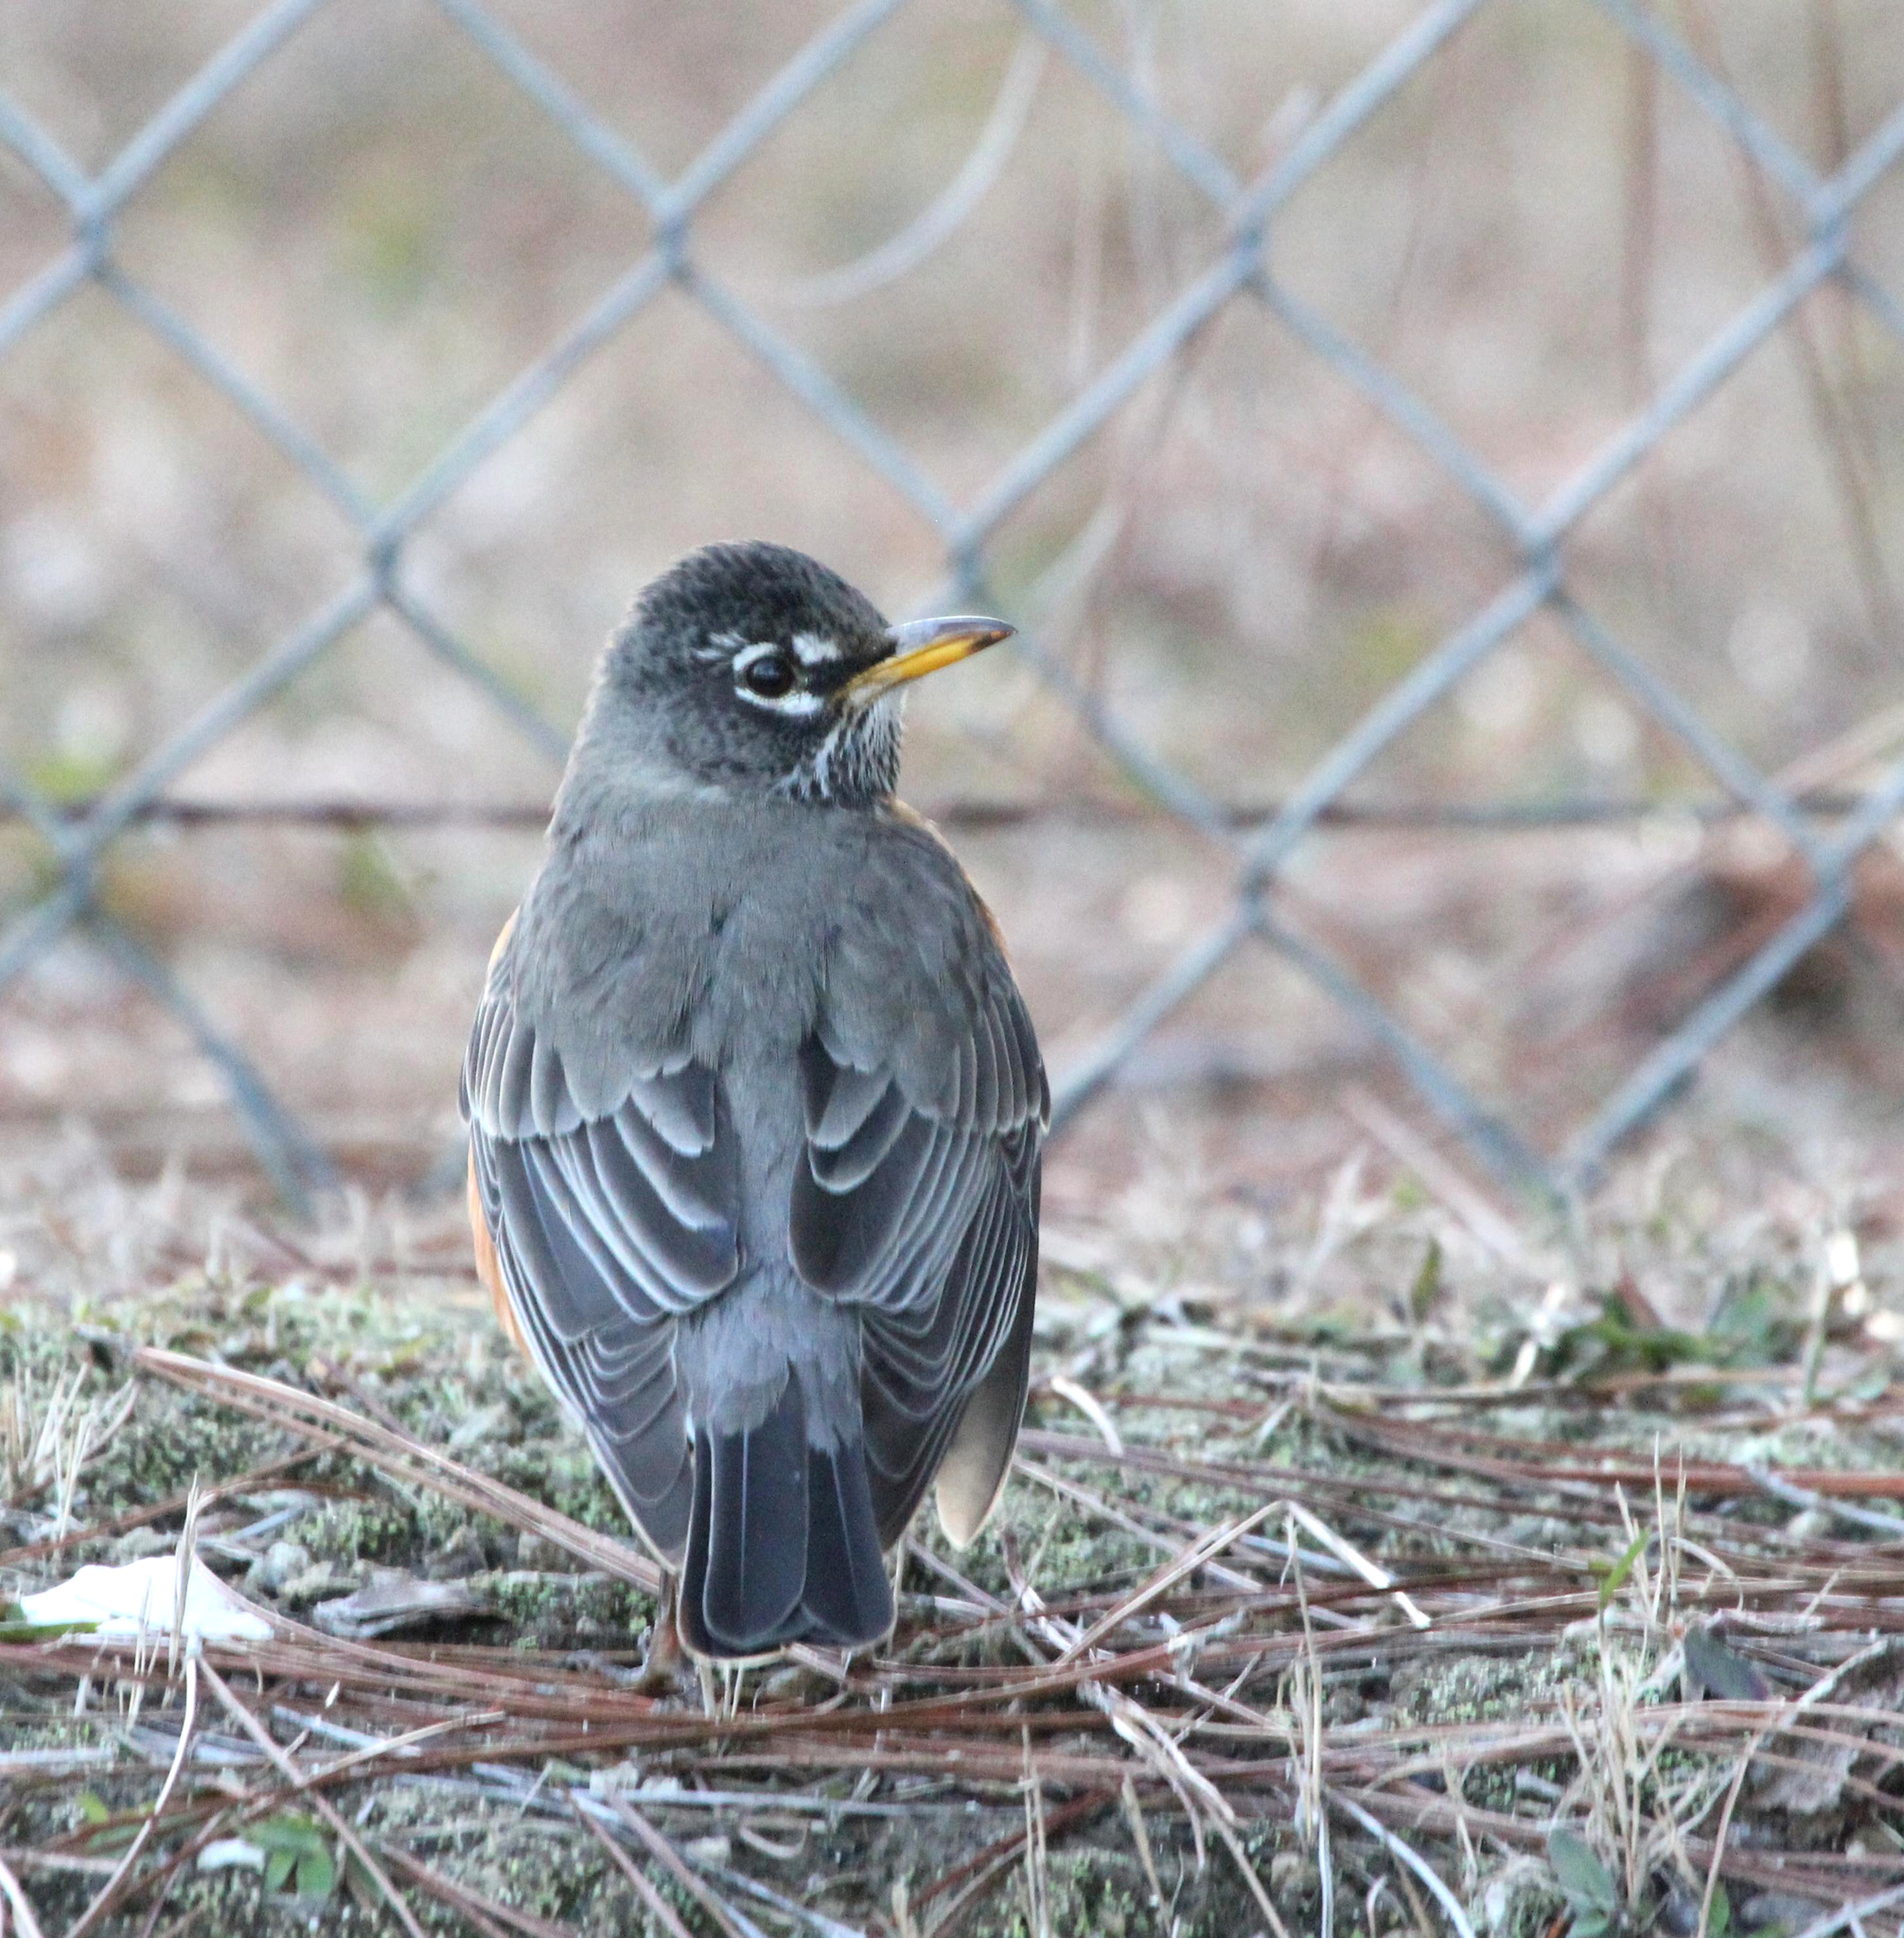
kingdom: Animalia
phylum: Chordata
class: Aves
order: Passeriformes
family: Turdidae
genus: Turdus
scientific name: Turdus migratorius
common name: American robin
